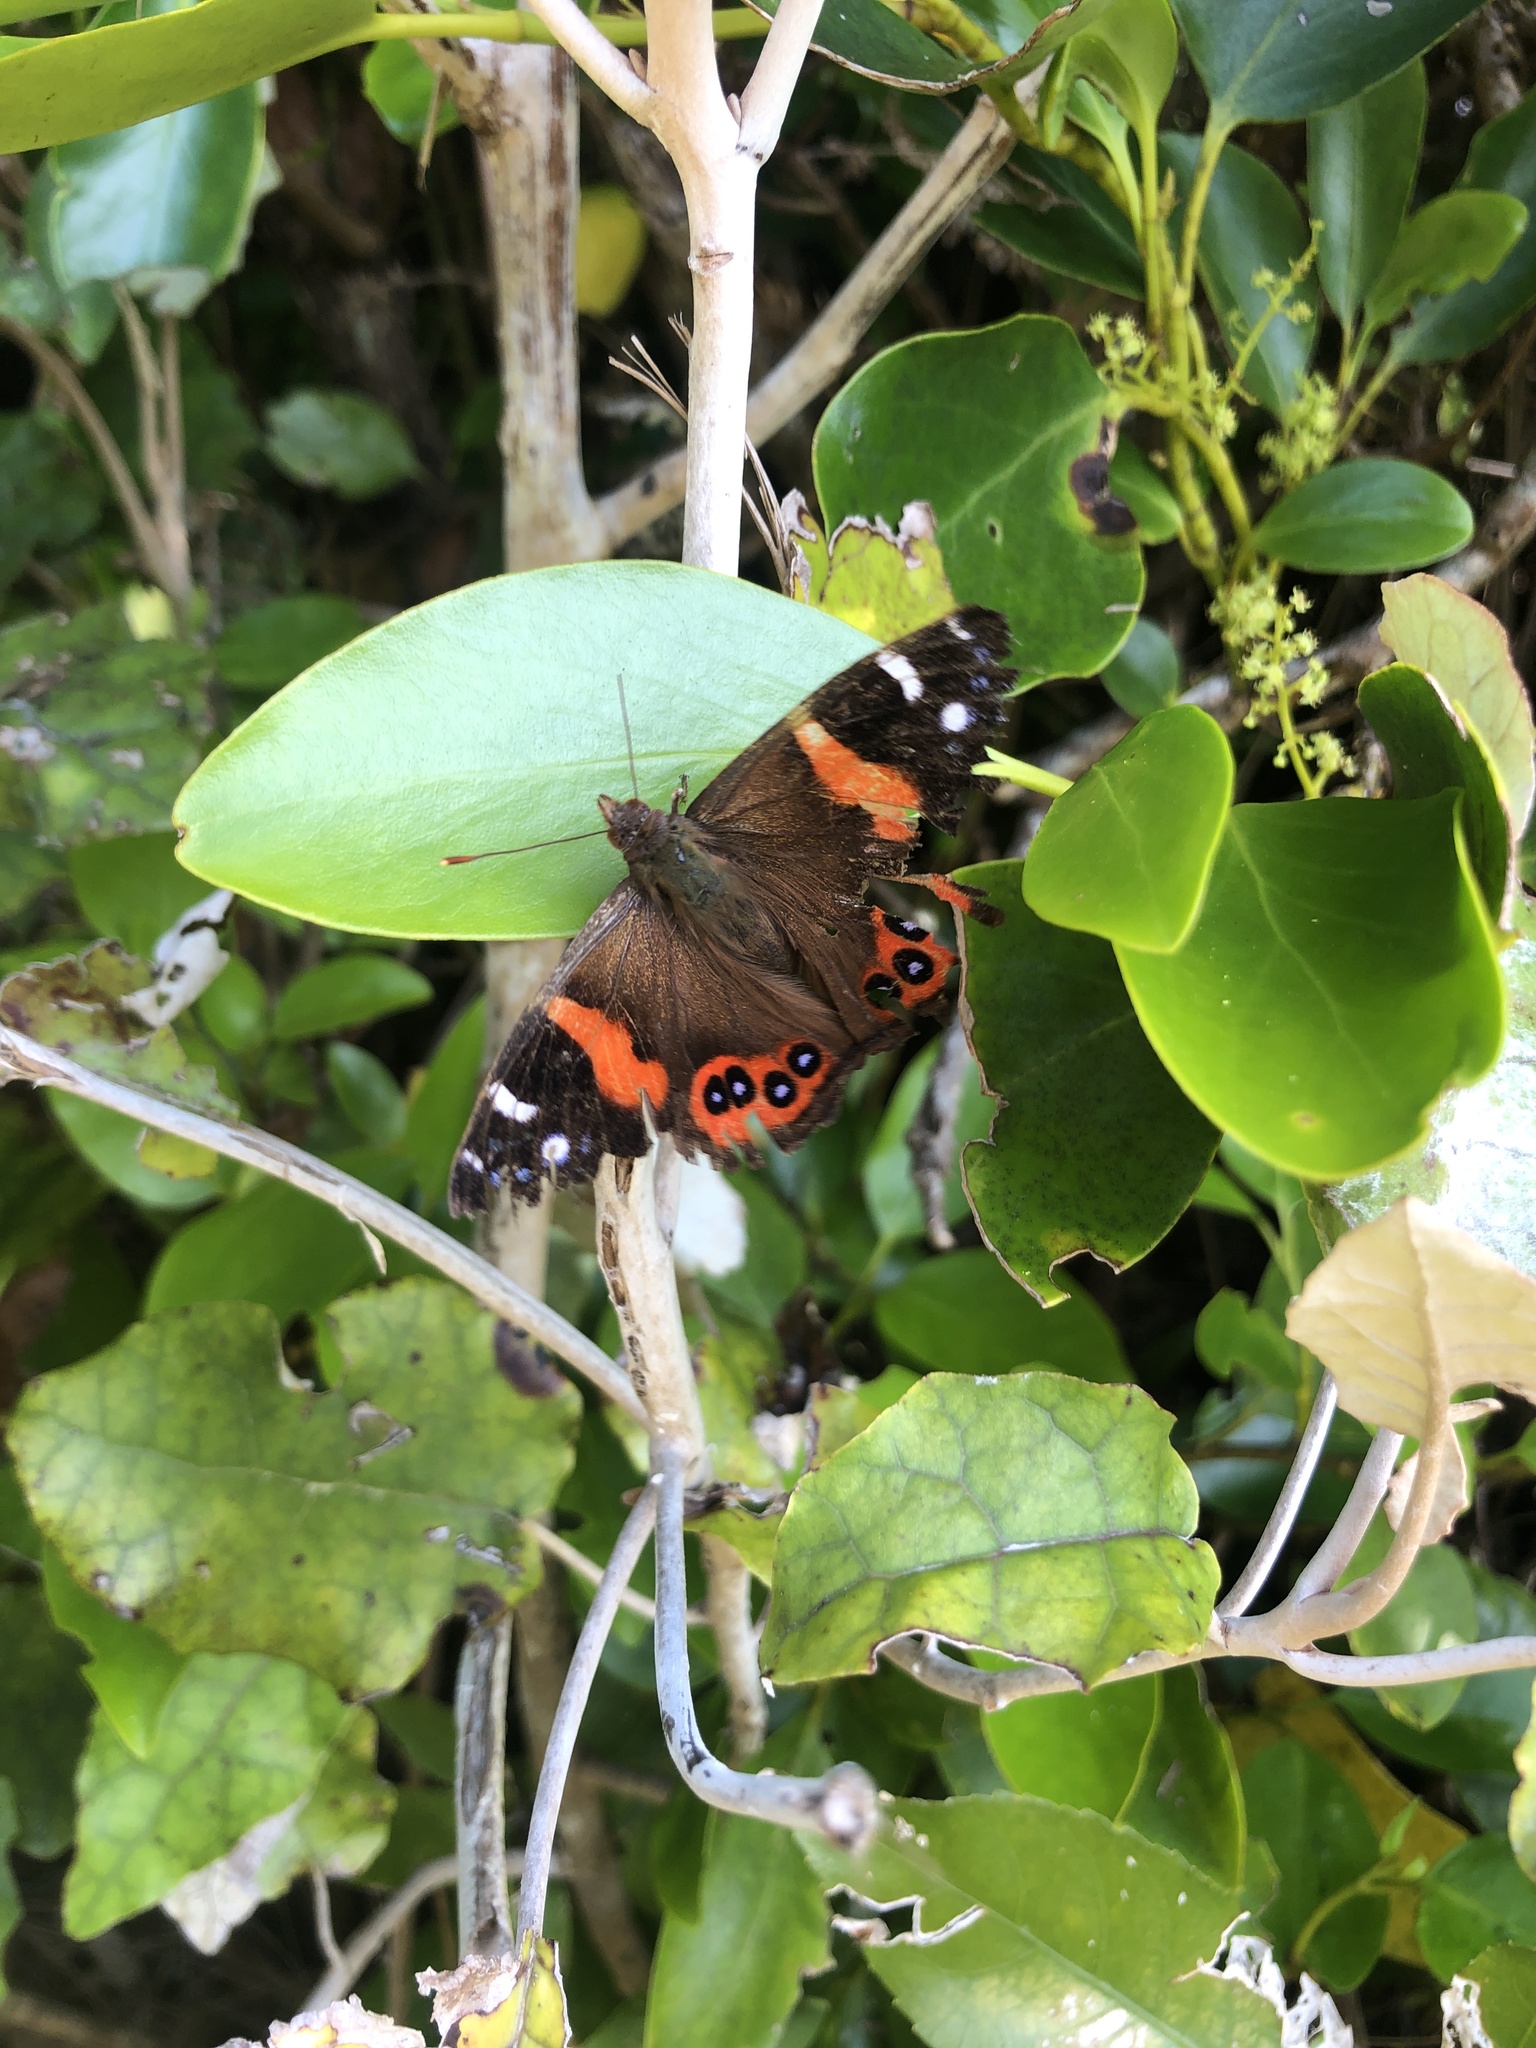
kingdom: Animalia
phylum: Arthropoda
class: Insecta
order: Lepidoptera
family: Nymphalidae
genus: Vanessa
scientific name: Vanessa gonerilla
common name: New zealand red admiral
